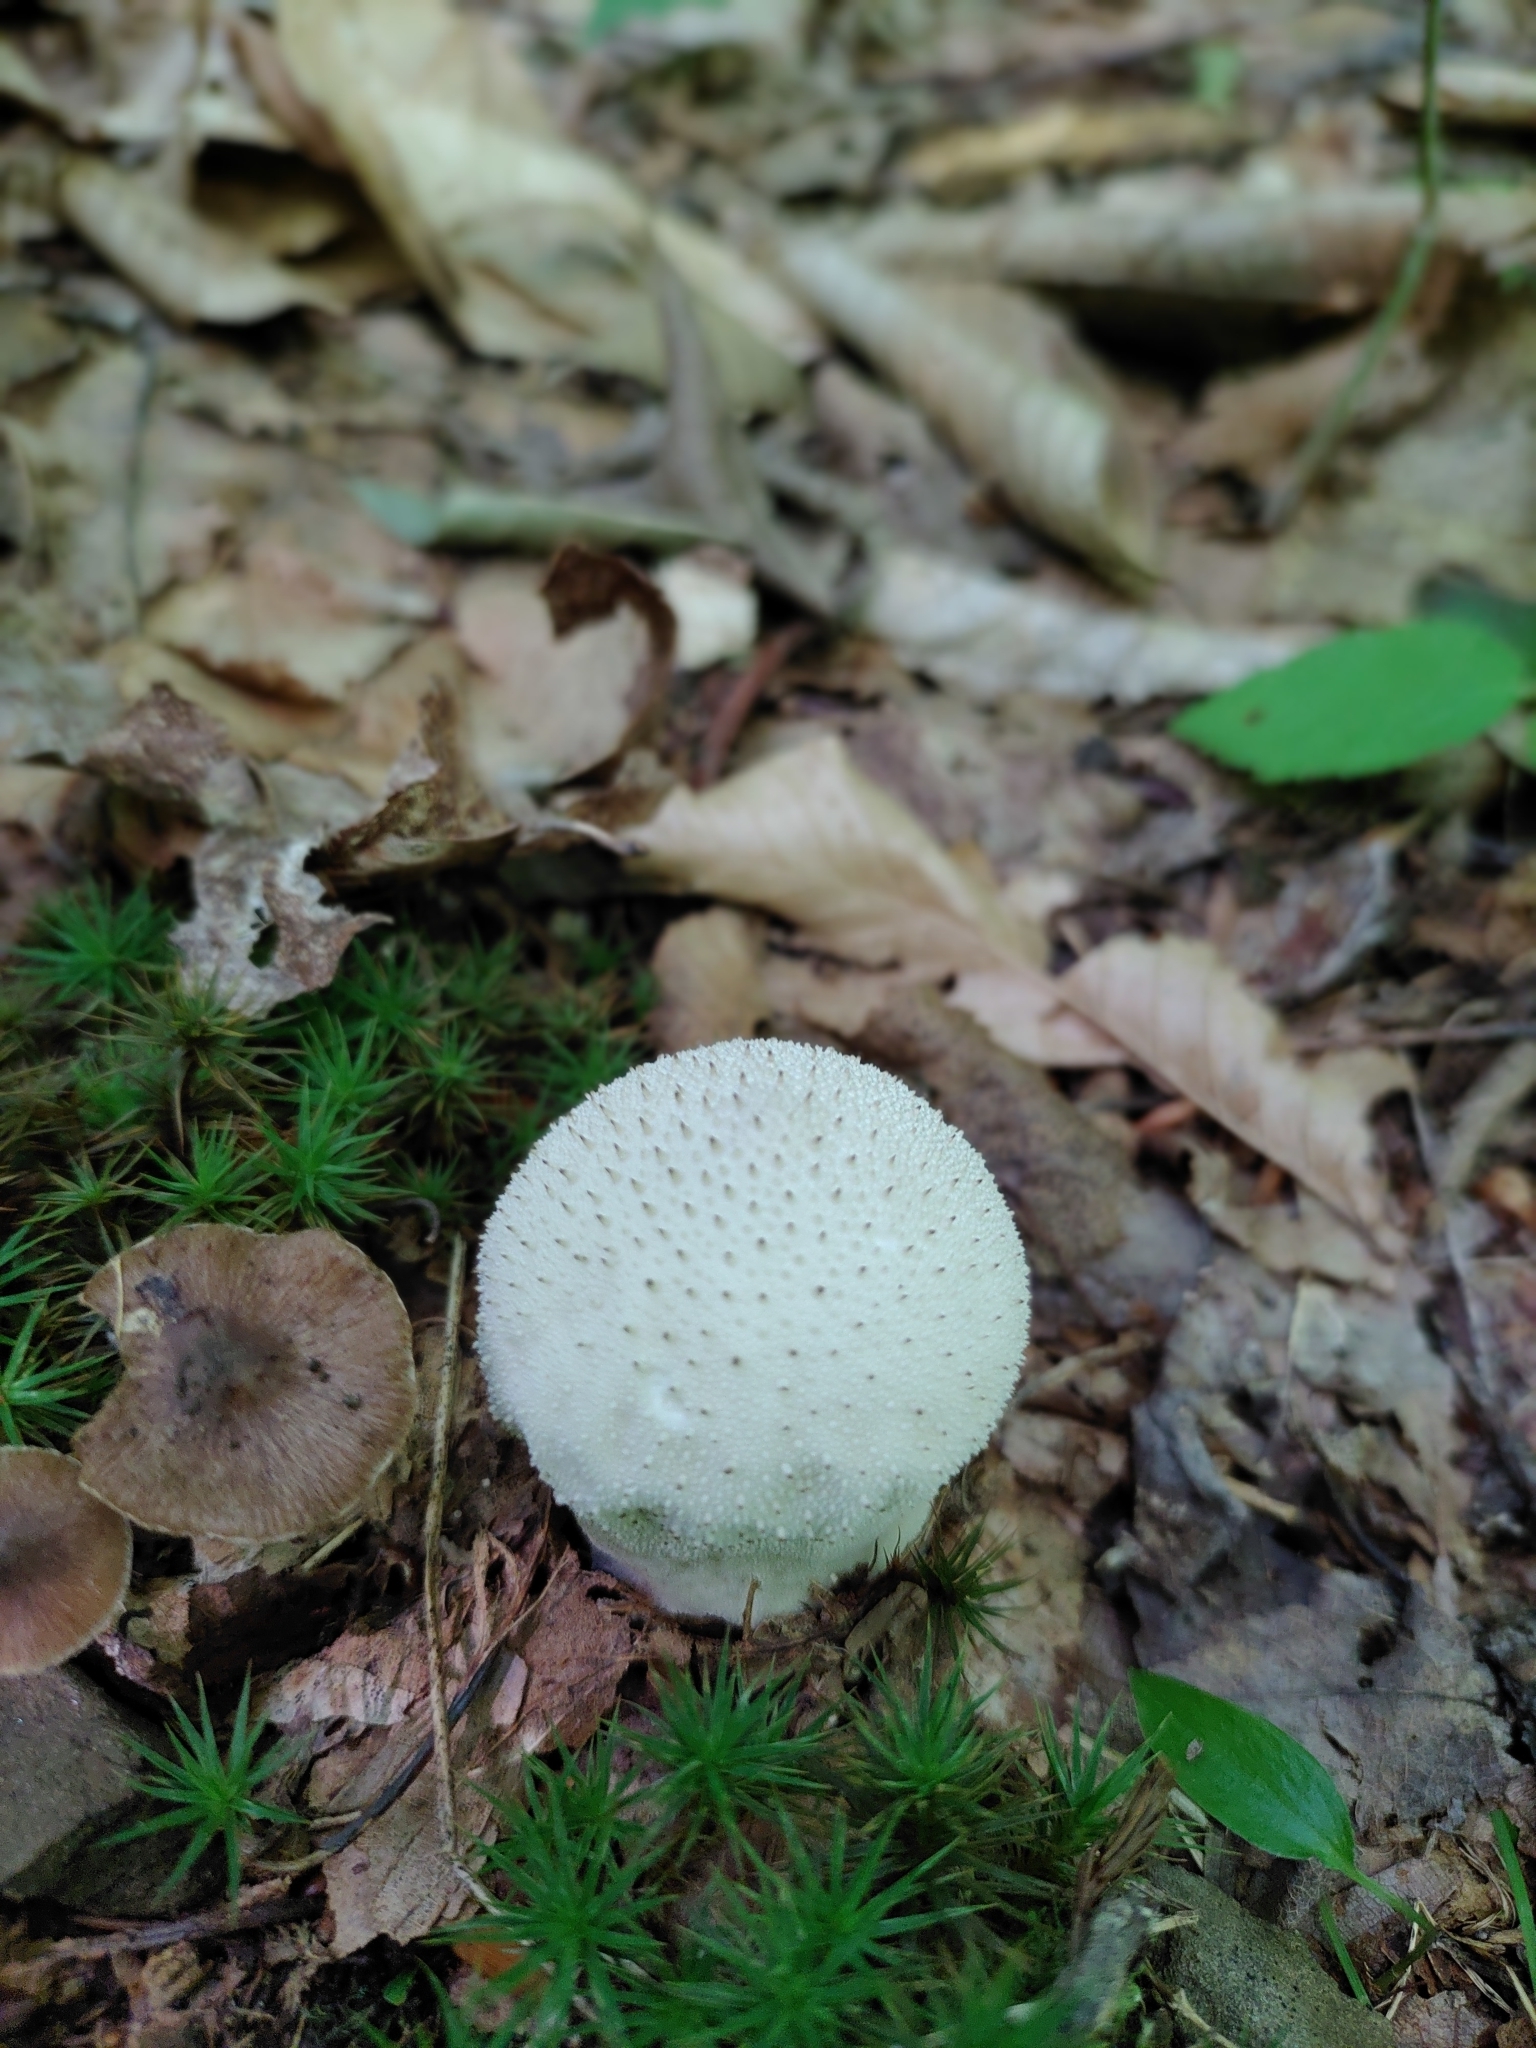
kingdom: Fungi
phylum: Basidiomycota
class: Agaricomycetes
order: Agaricales
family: Lycoperdaceae
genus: Lycoperdon
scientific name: Lycoperdon perlatum
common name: Common puffball
